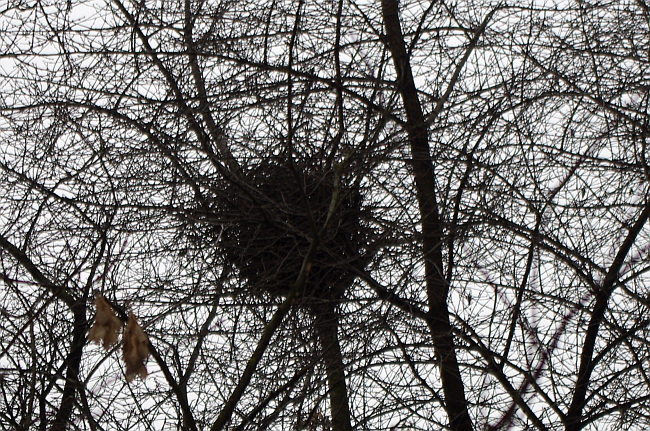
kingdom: Animalia
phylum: Chordata
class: Aves
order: Passeriformes
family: Corvidae
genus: Pica
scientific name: Pica pica
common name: Eurasian magpie
